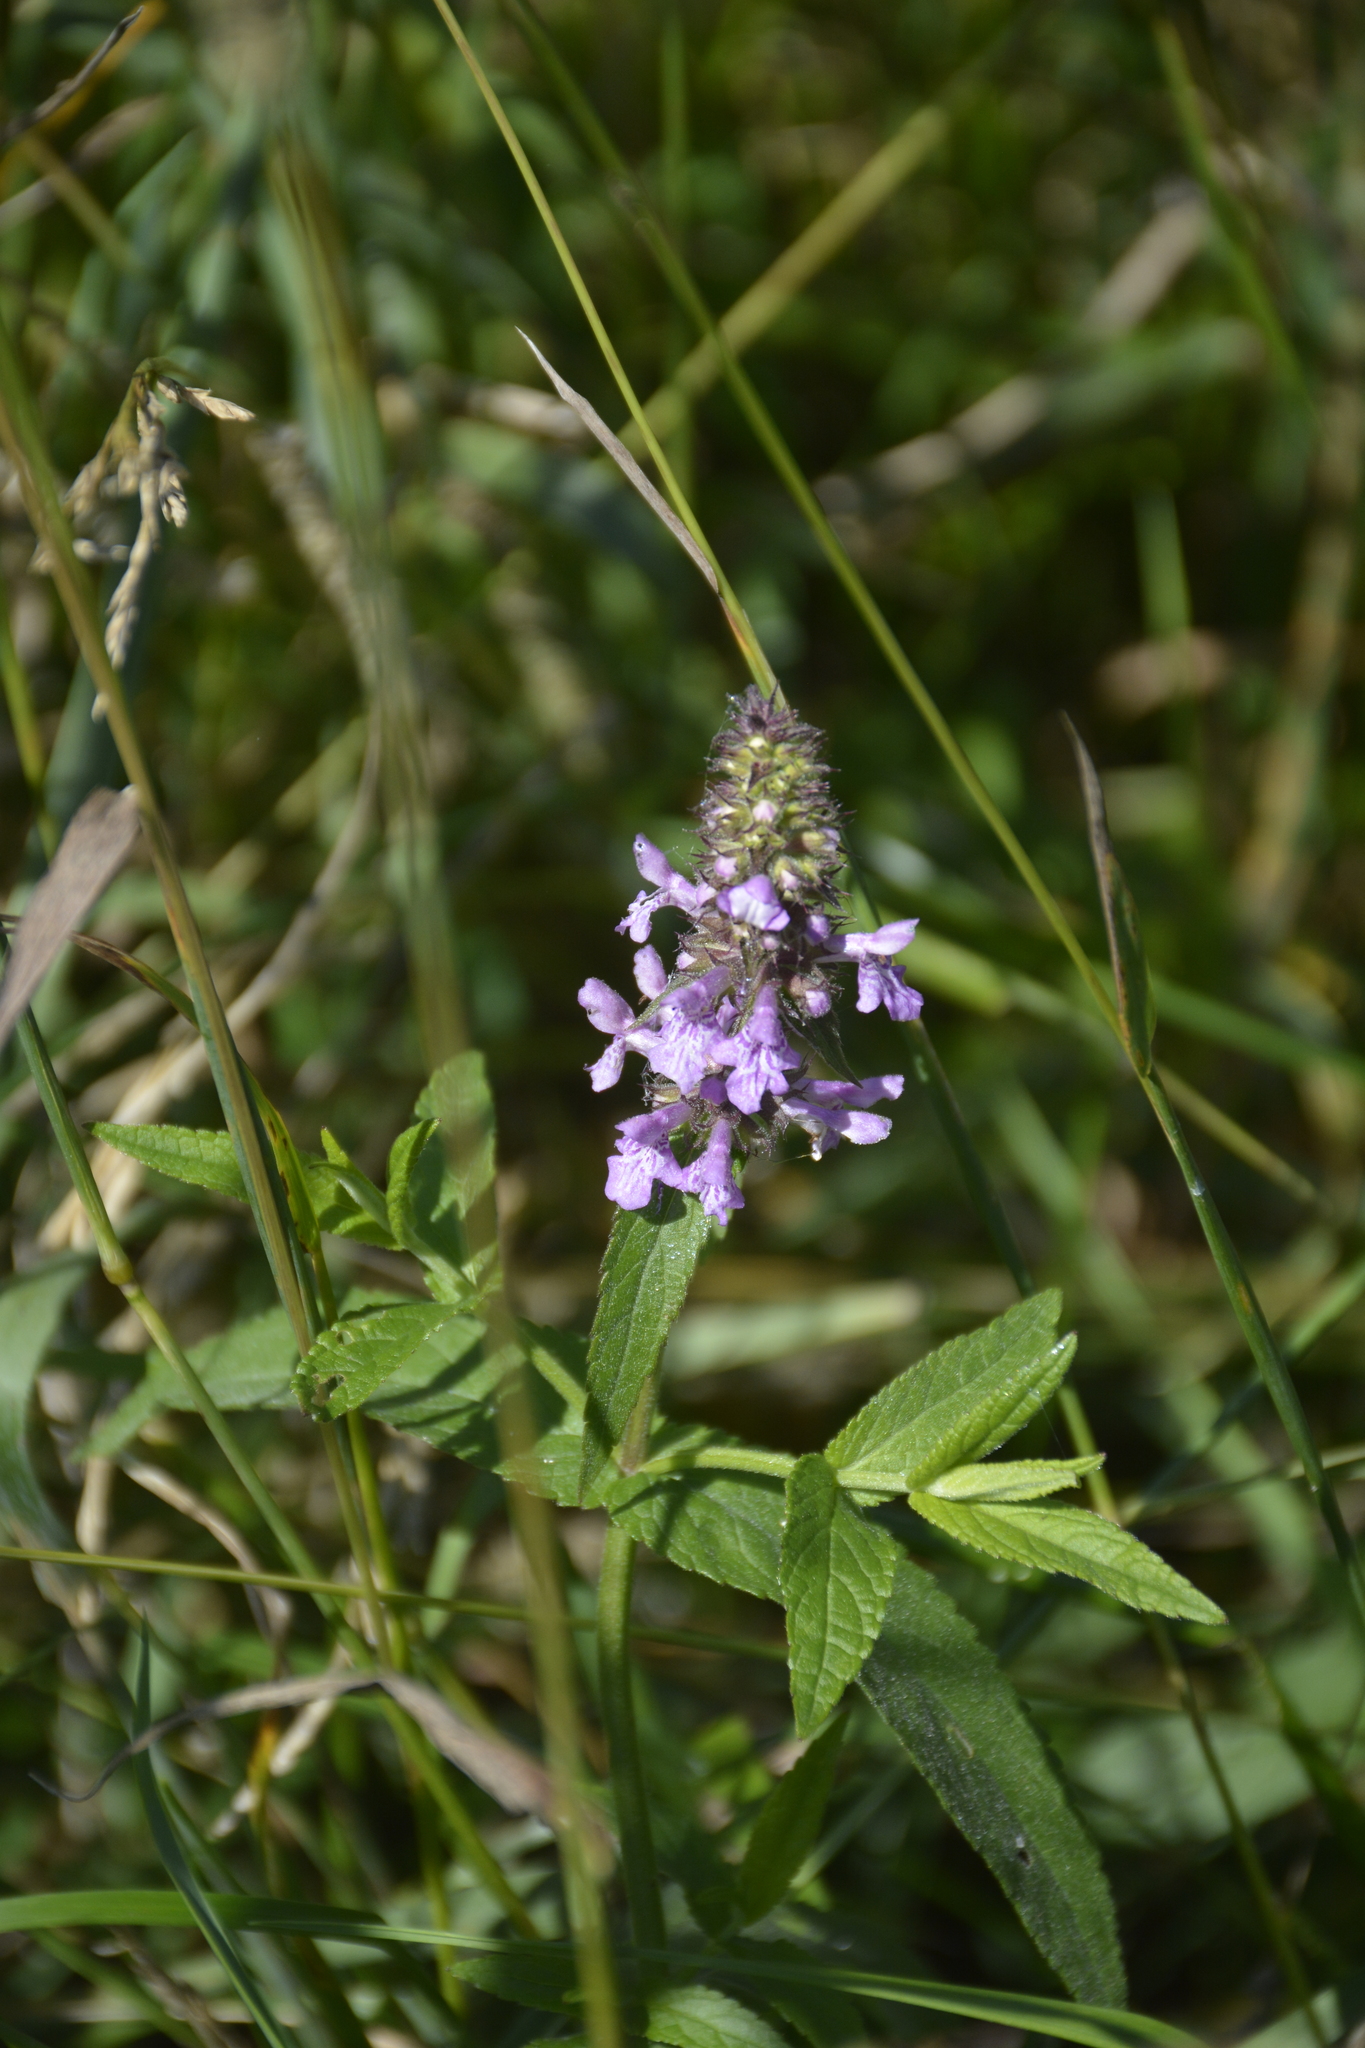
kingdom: Plantae
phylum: Tracheophyta
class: Magnoliopsida
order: Lamiales
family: Lamiaceae
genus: Stachys
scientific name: Stachys palustris
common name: Marsh woundwort
